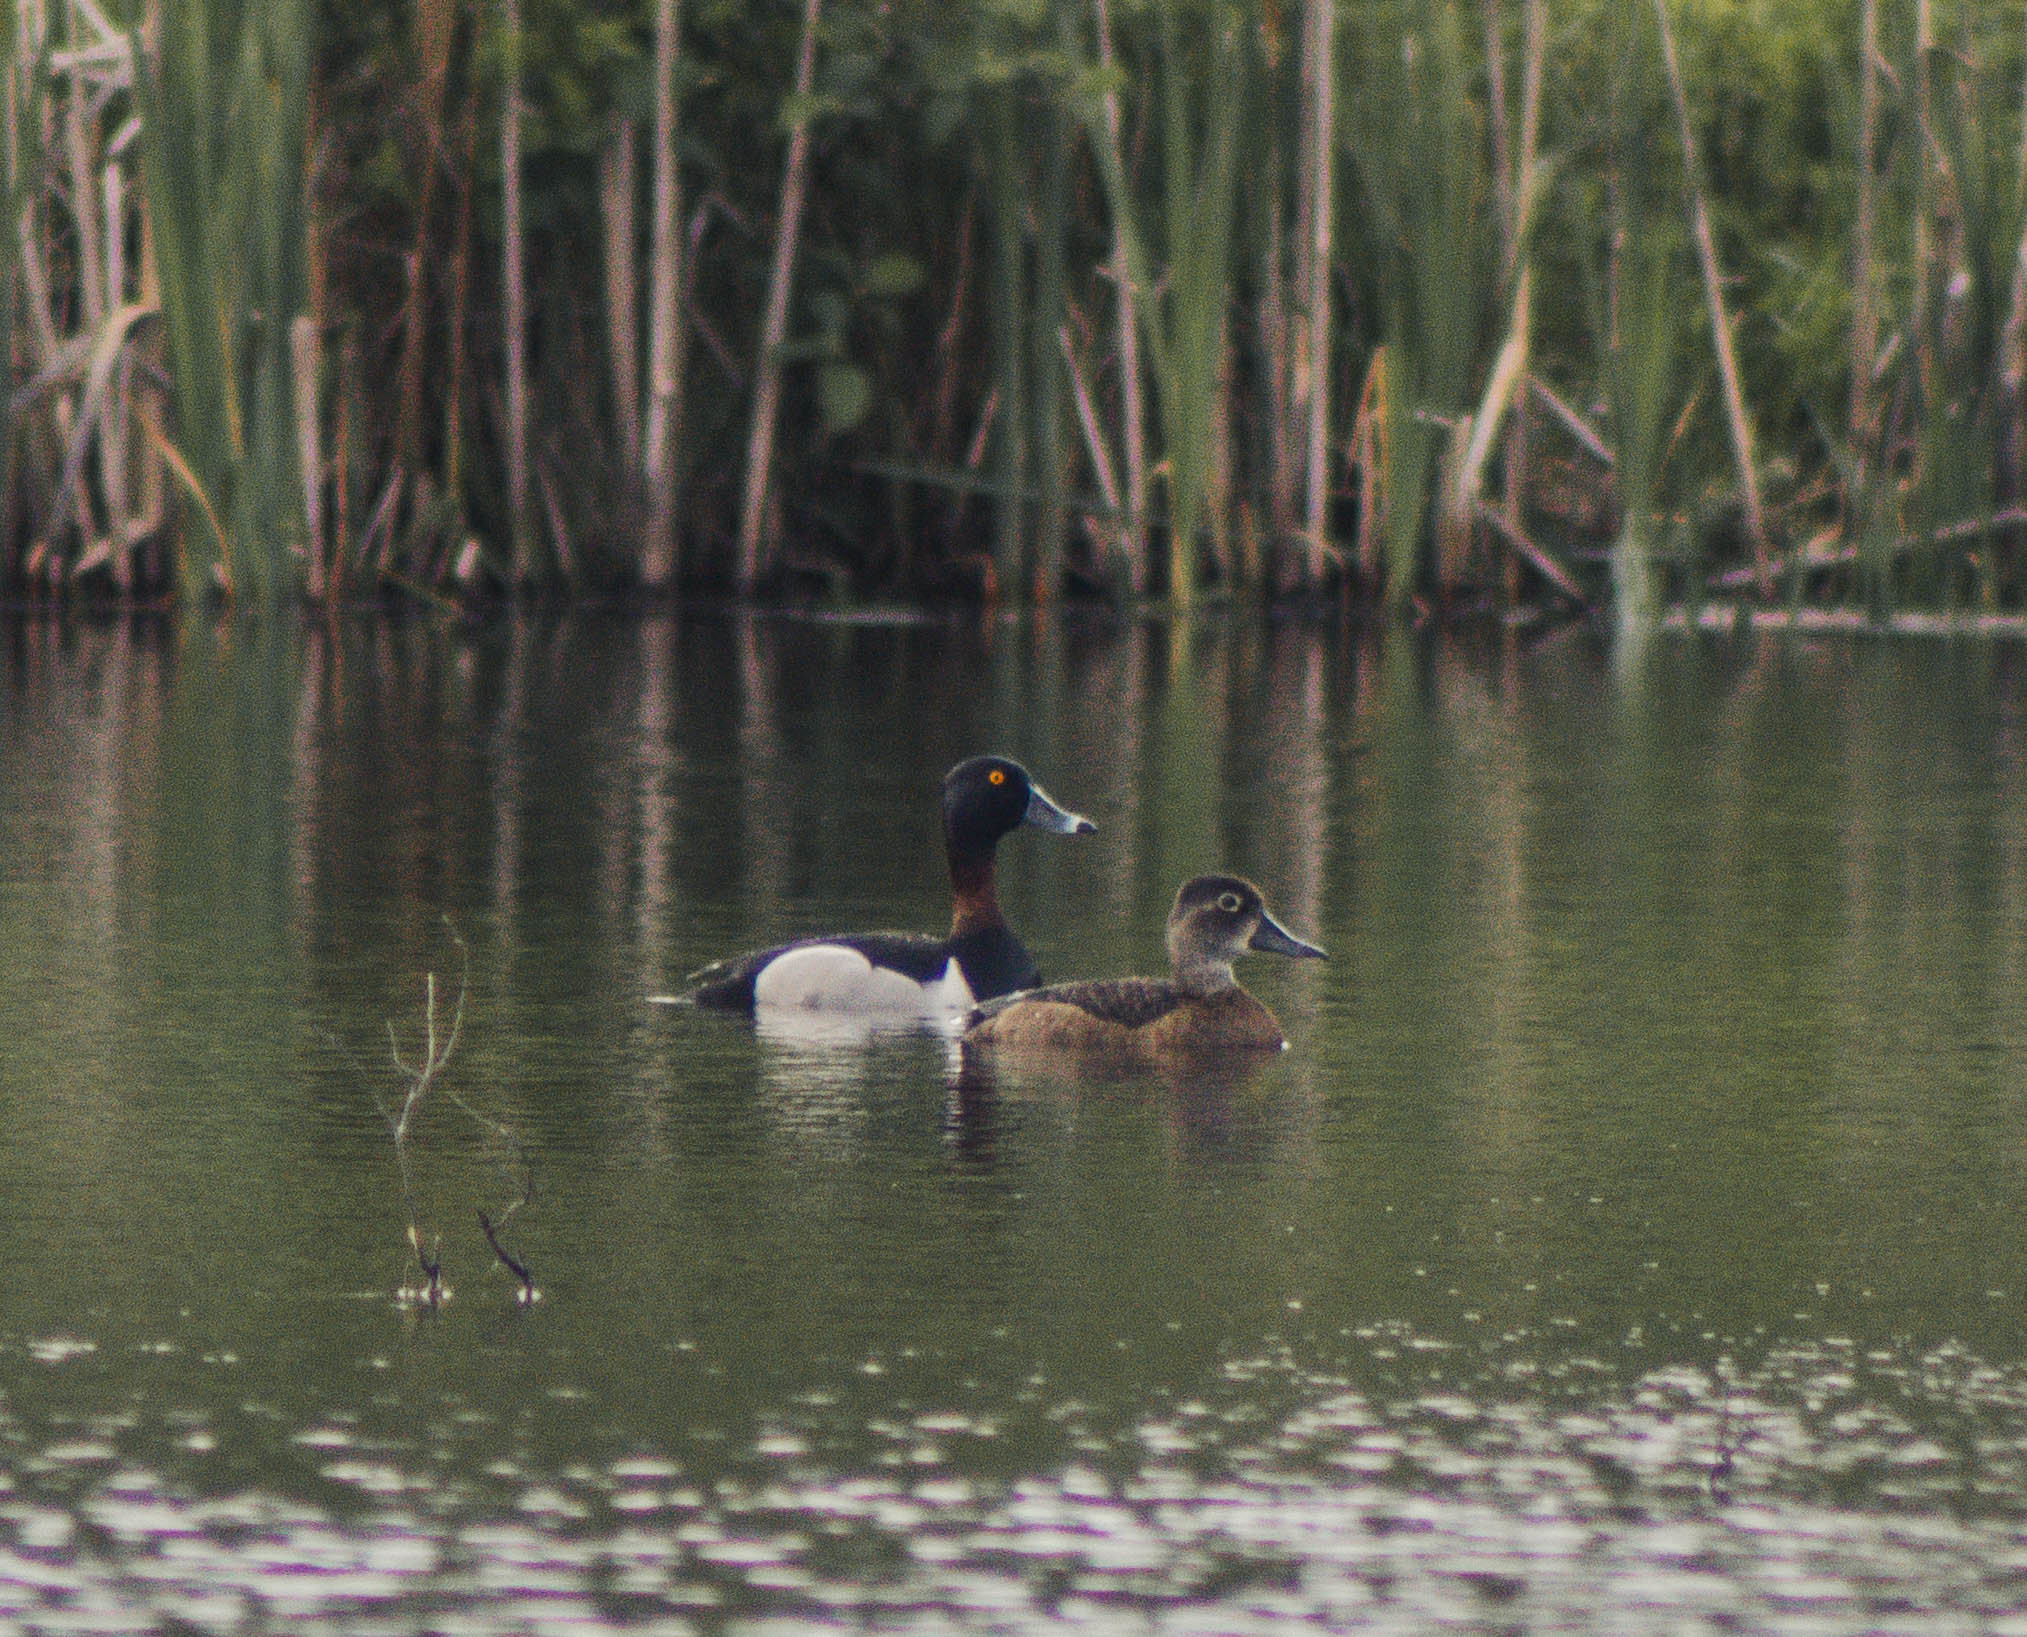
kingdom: Animalia
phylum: Chordata
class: Aves
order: Anseriformes
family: Anatidae
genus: Aythya
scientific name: Aythya collaris
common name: Ring-necked duck
